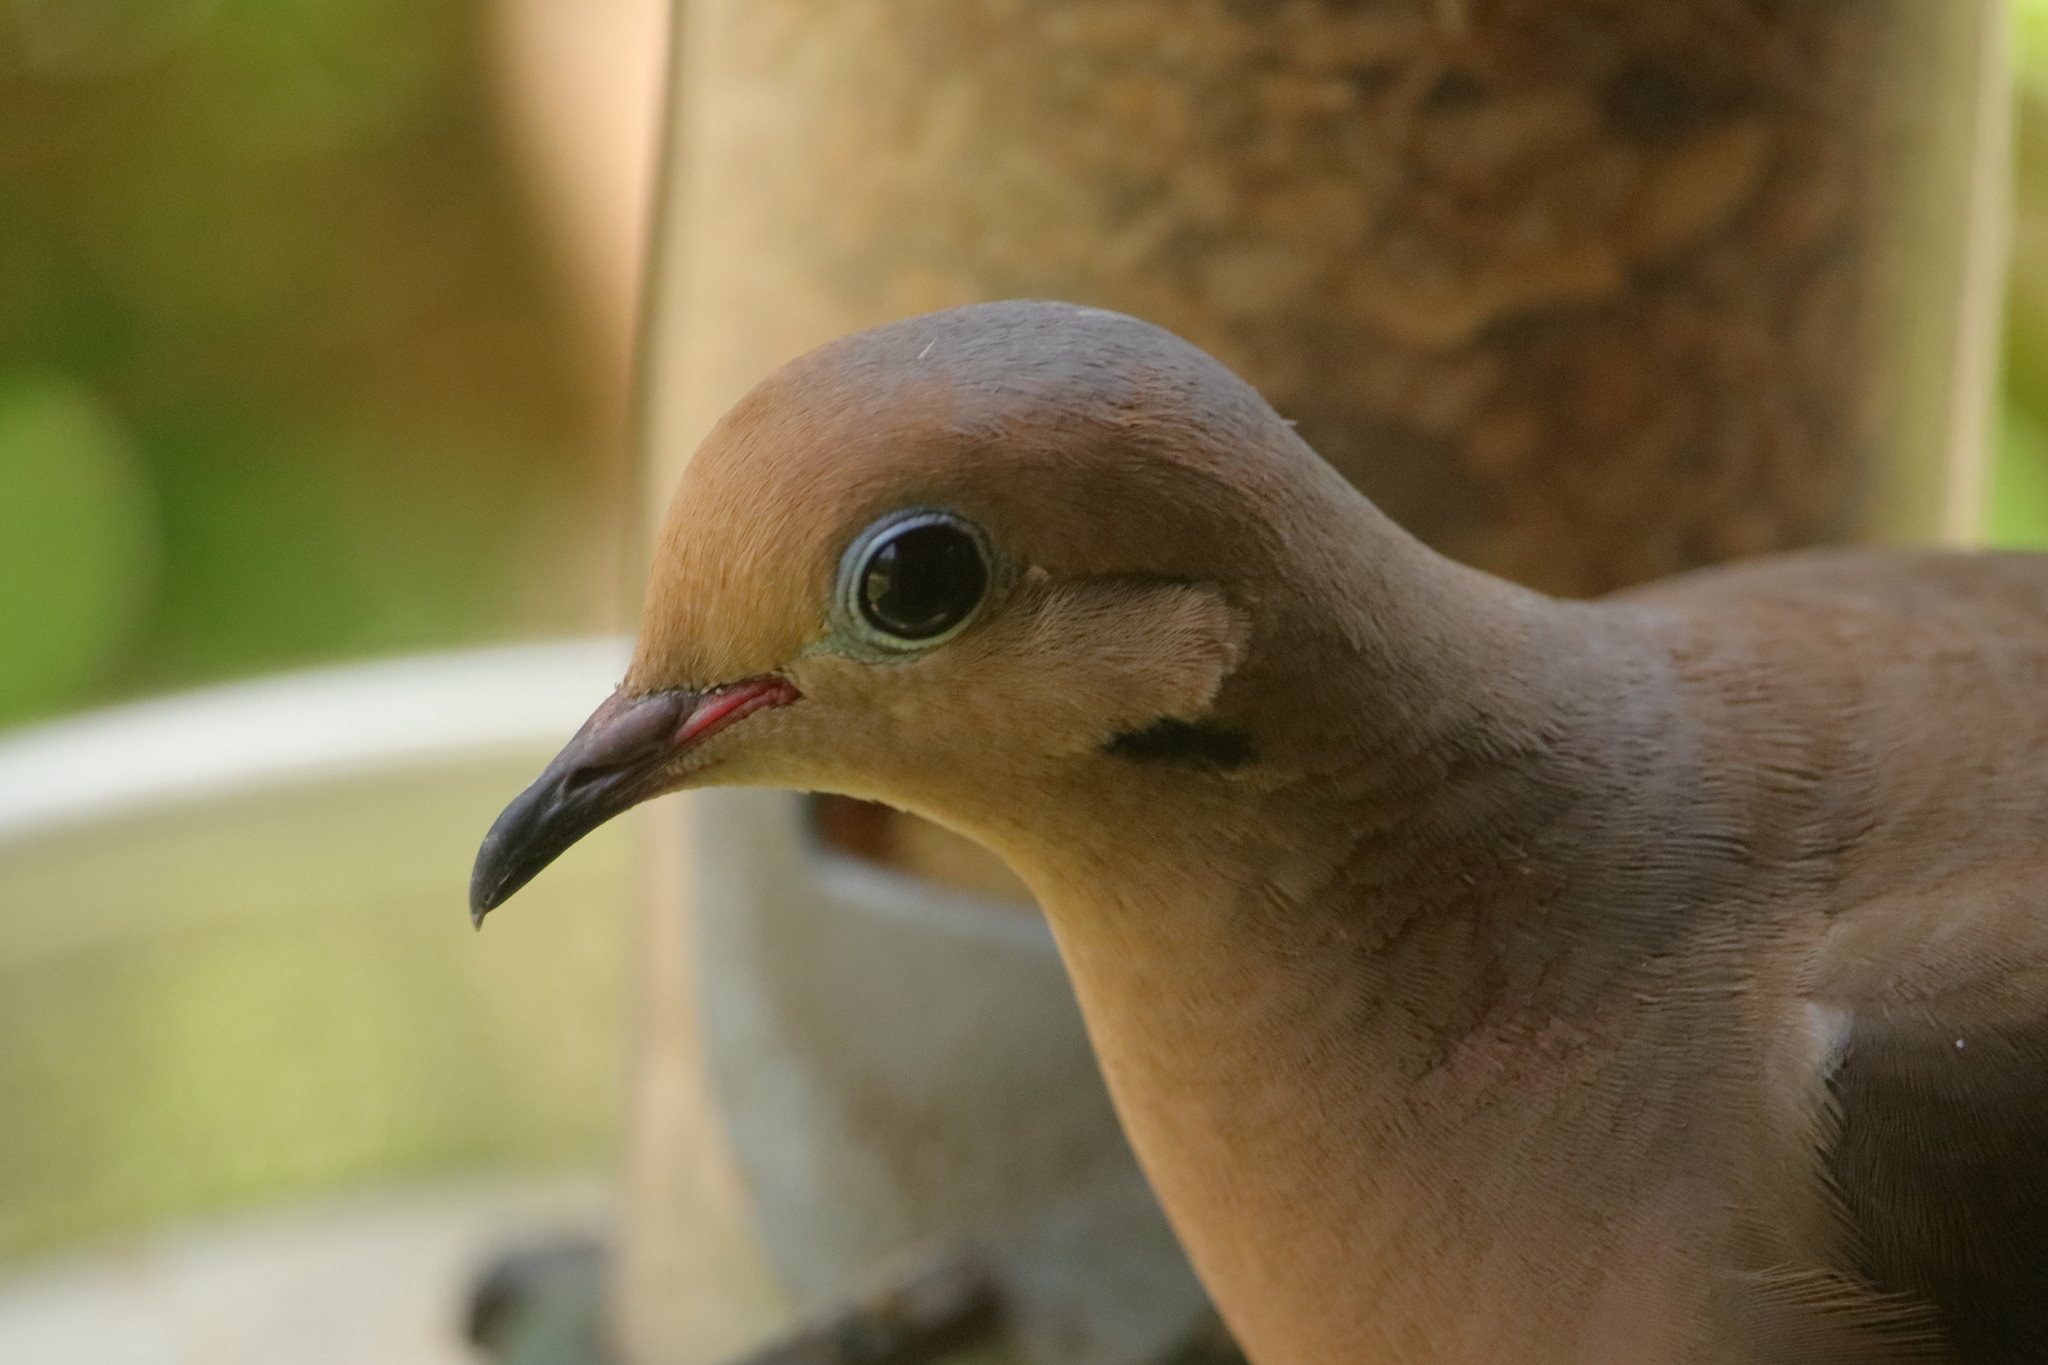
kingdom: Animalia
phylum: Chordata
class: Aves
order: Columbiformes
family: Columbidae
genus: Zenaida
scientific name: Zenaida macroura
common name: Mourning dove
